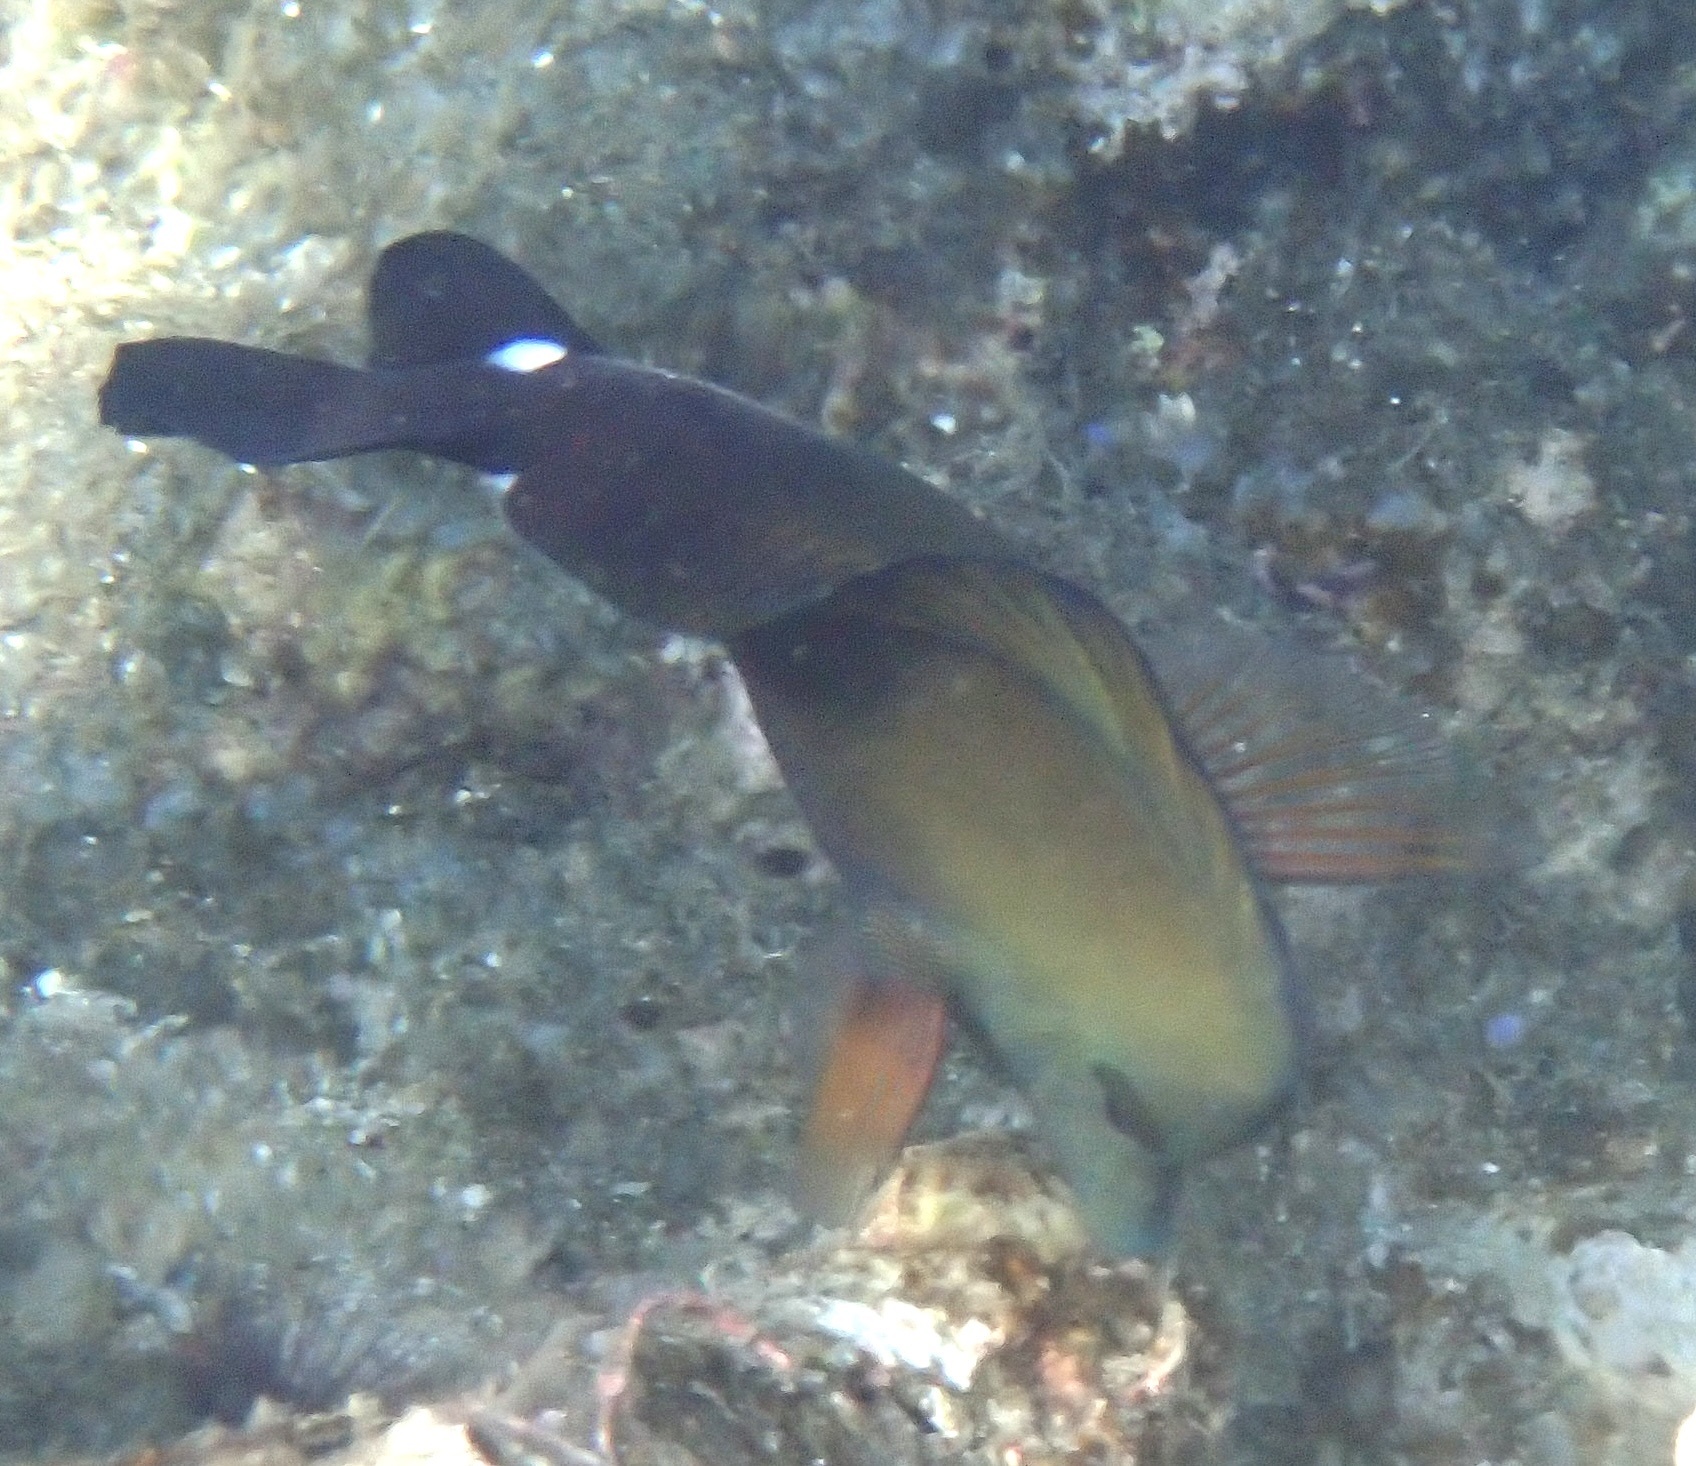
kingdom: Animalia
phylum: Chordata
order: Perciformes
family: Acanthuridae
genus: Zebrasoma
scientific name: Zebrasoma scopas
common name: Twotone tang
